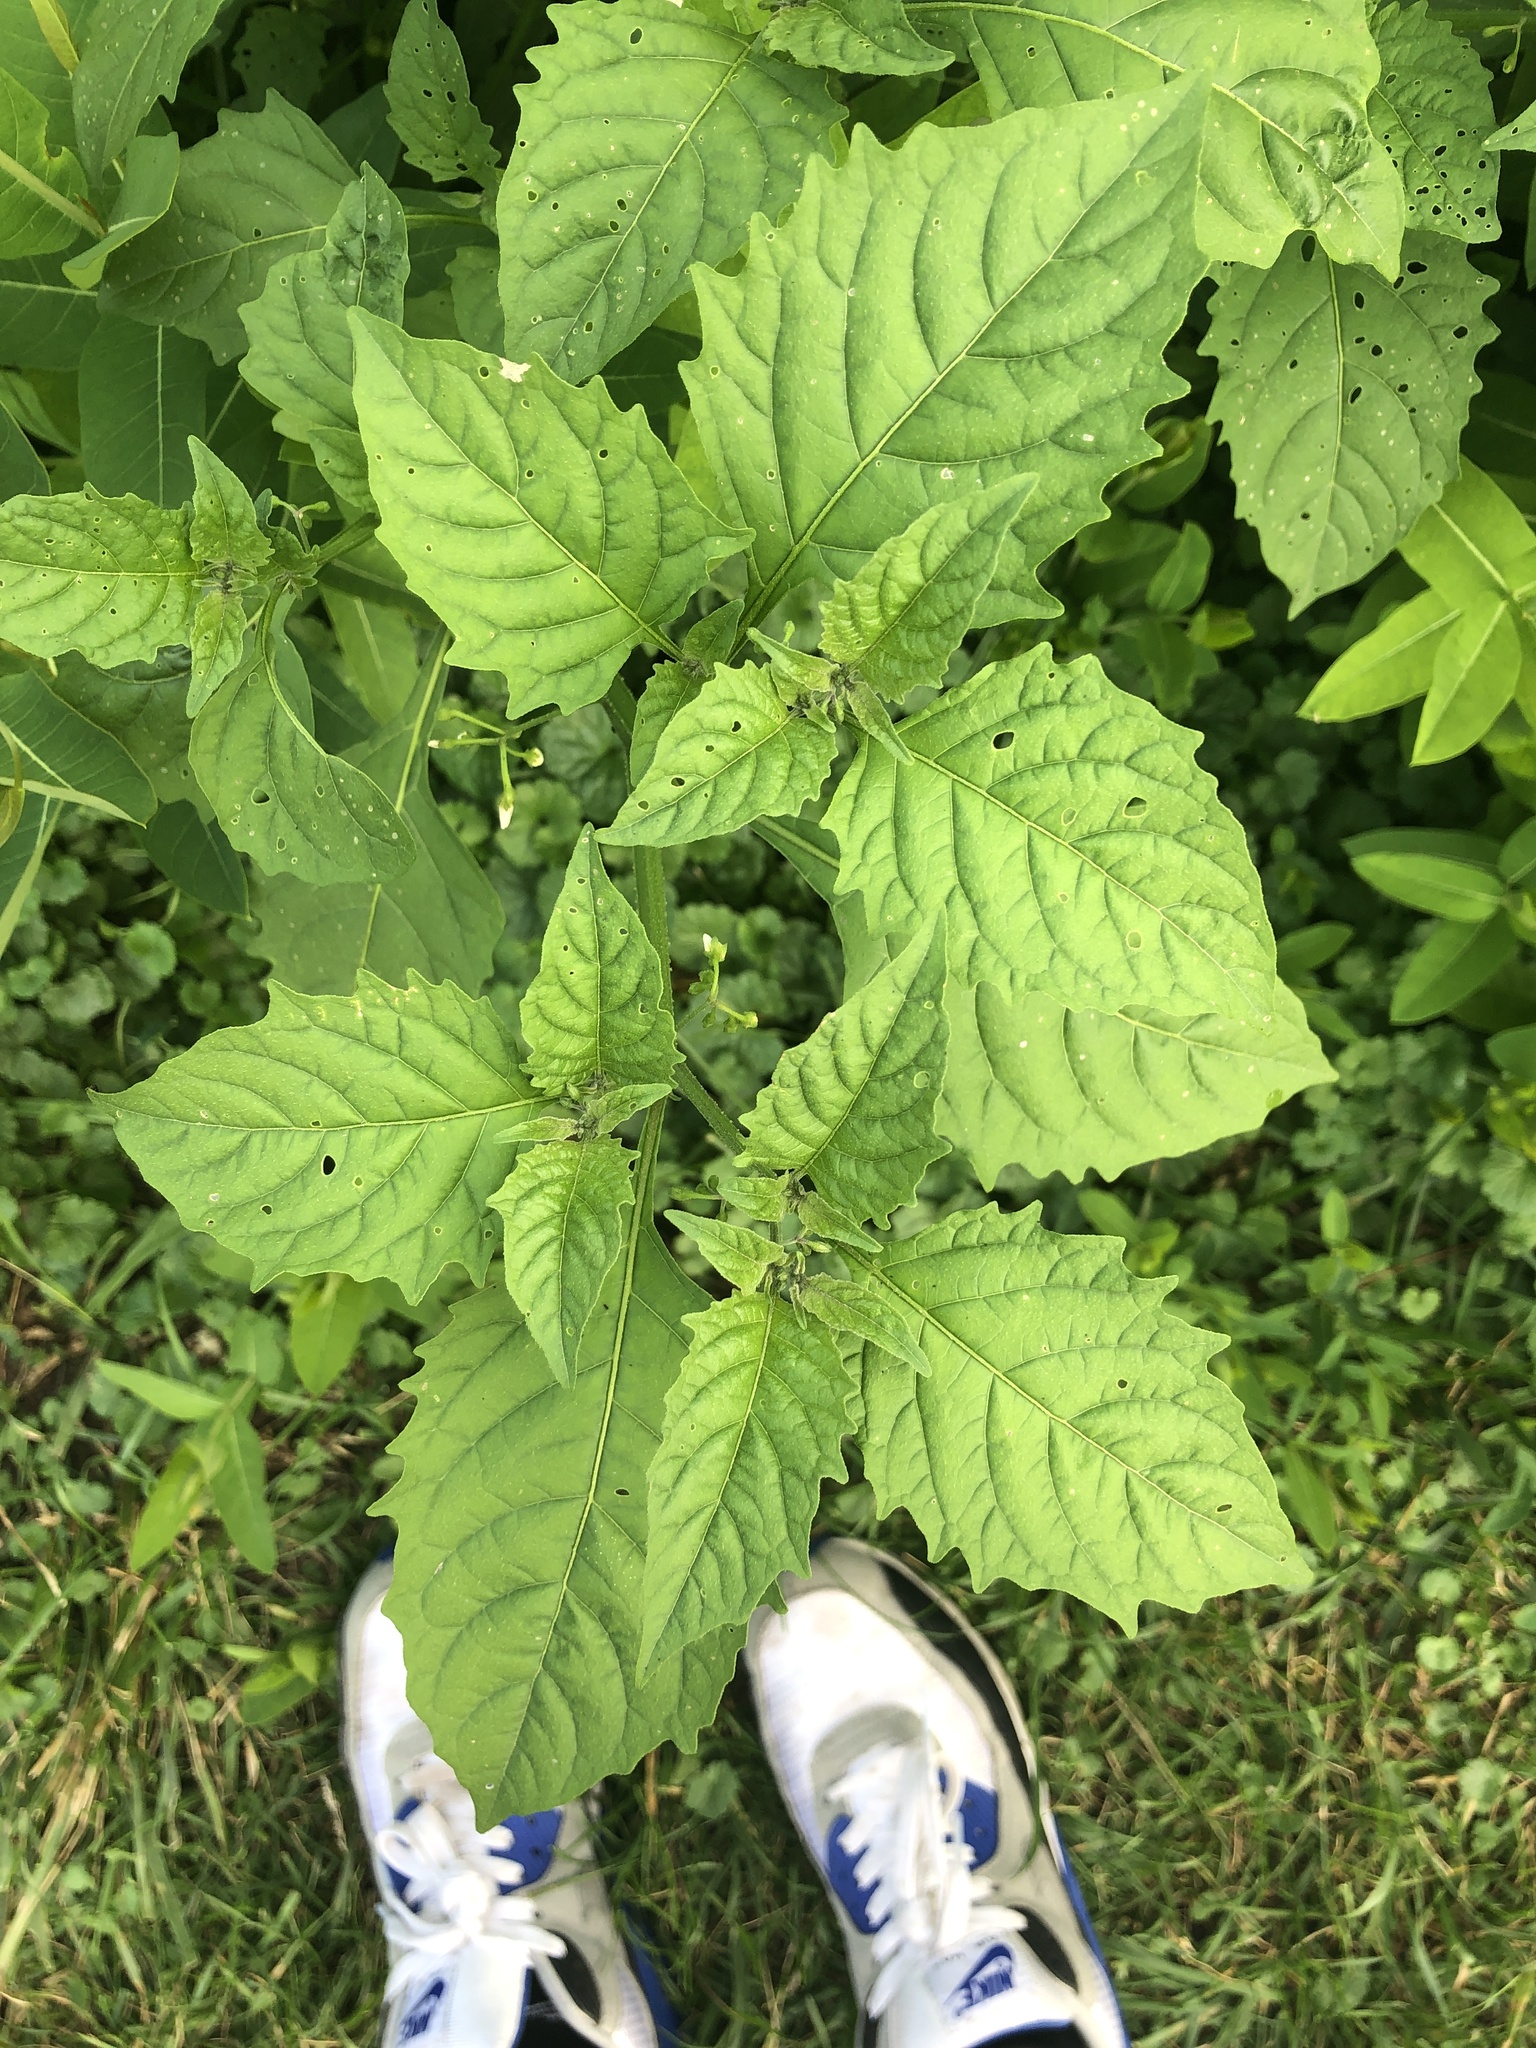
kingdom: Plantae
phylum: Tracheophyta
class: Magnoliopsida
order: Solanales
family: Solanaceae
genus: Solanum
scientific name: Solanum emulans
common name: Eastern black nightshade
